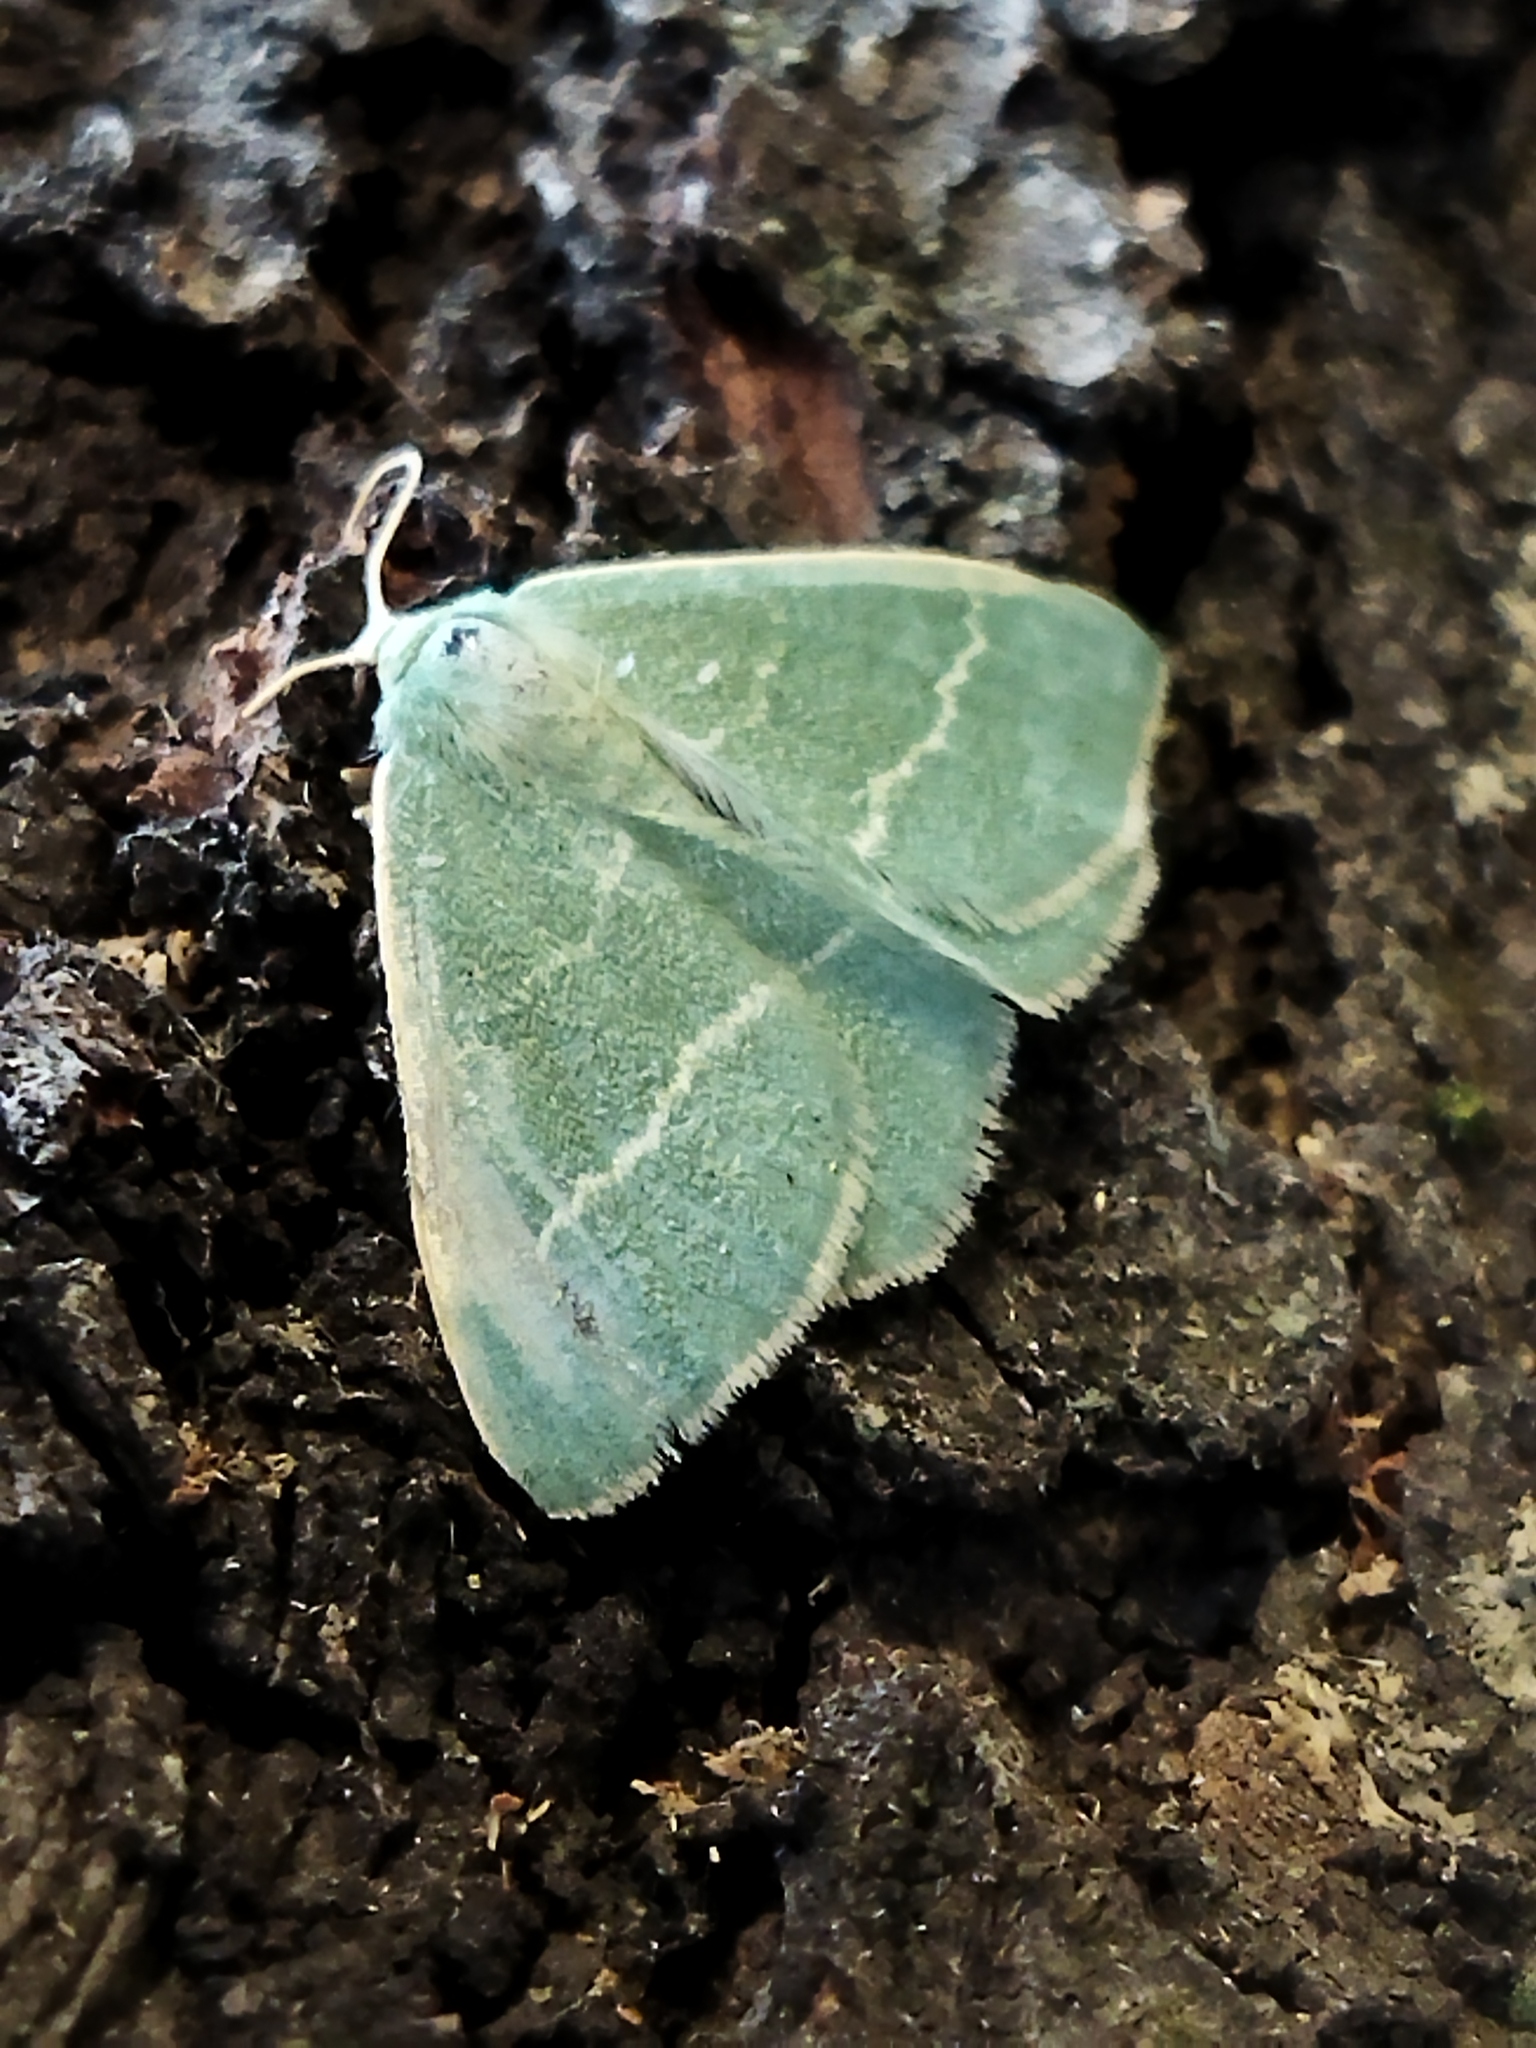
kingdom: Animalia
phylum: Arthropoda
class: Insecta
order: Lepidoptera
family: Geometridae
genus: Chlorissa
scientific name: Chlorissa
